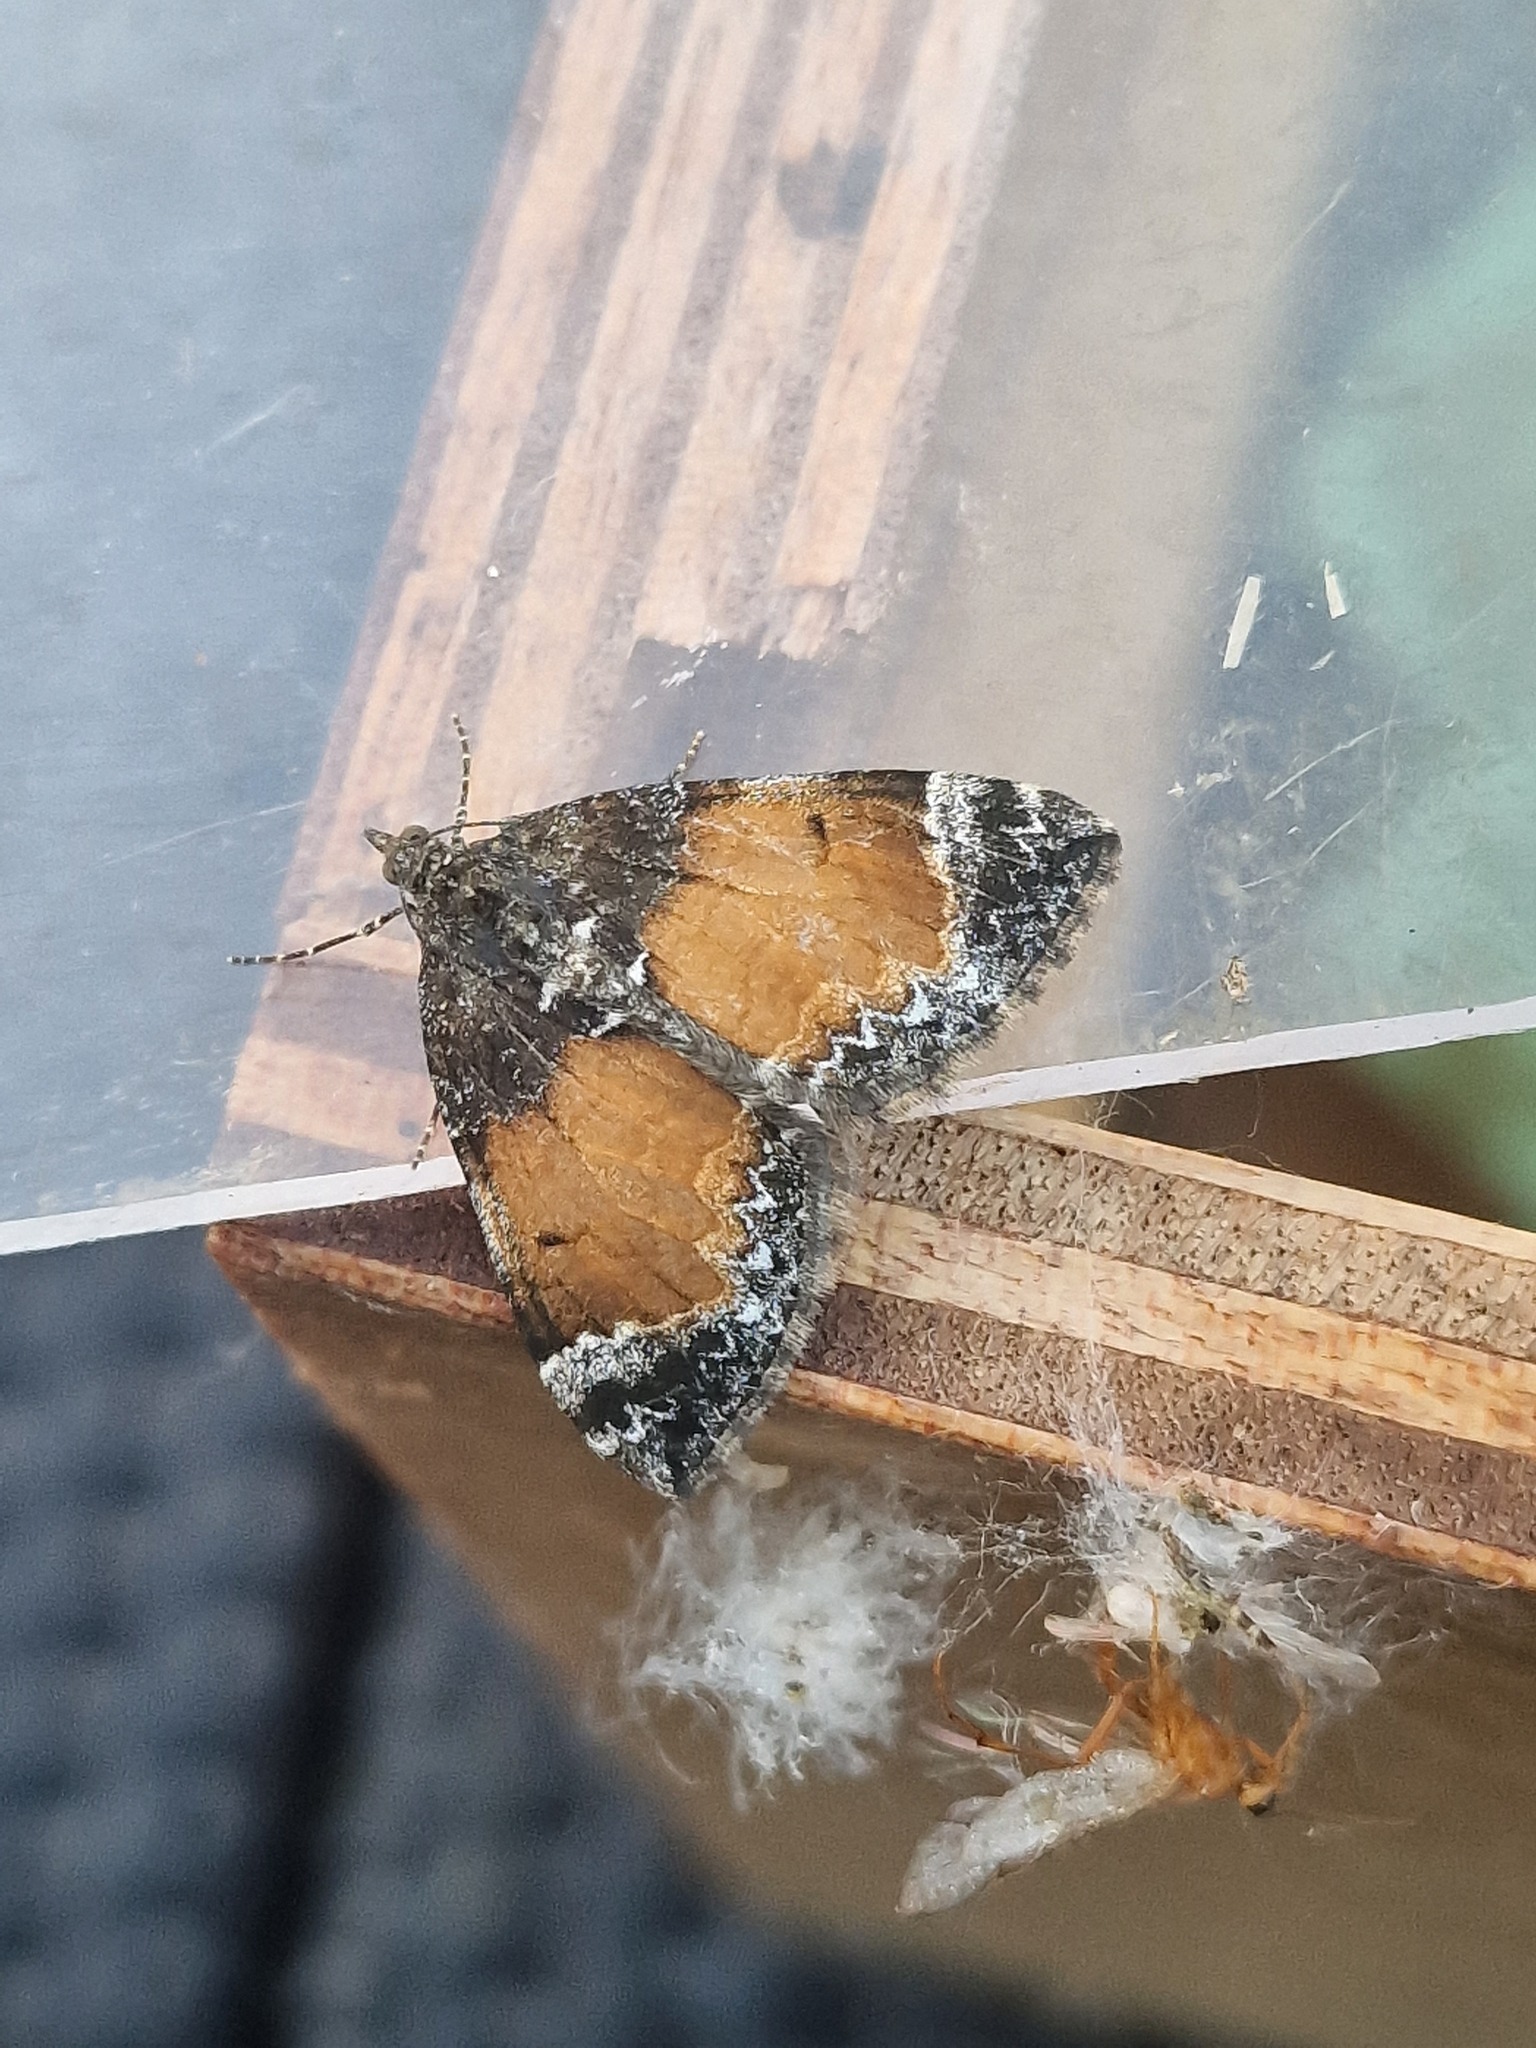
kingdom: Animalia
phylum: Arthropoda
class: Insecta
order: Lepidoptera
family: Geometridae
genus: Dysstroma
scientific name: Dysstroma truncata
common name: Common marbled carpet
